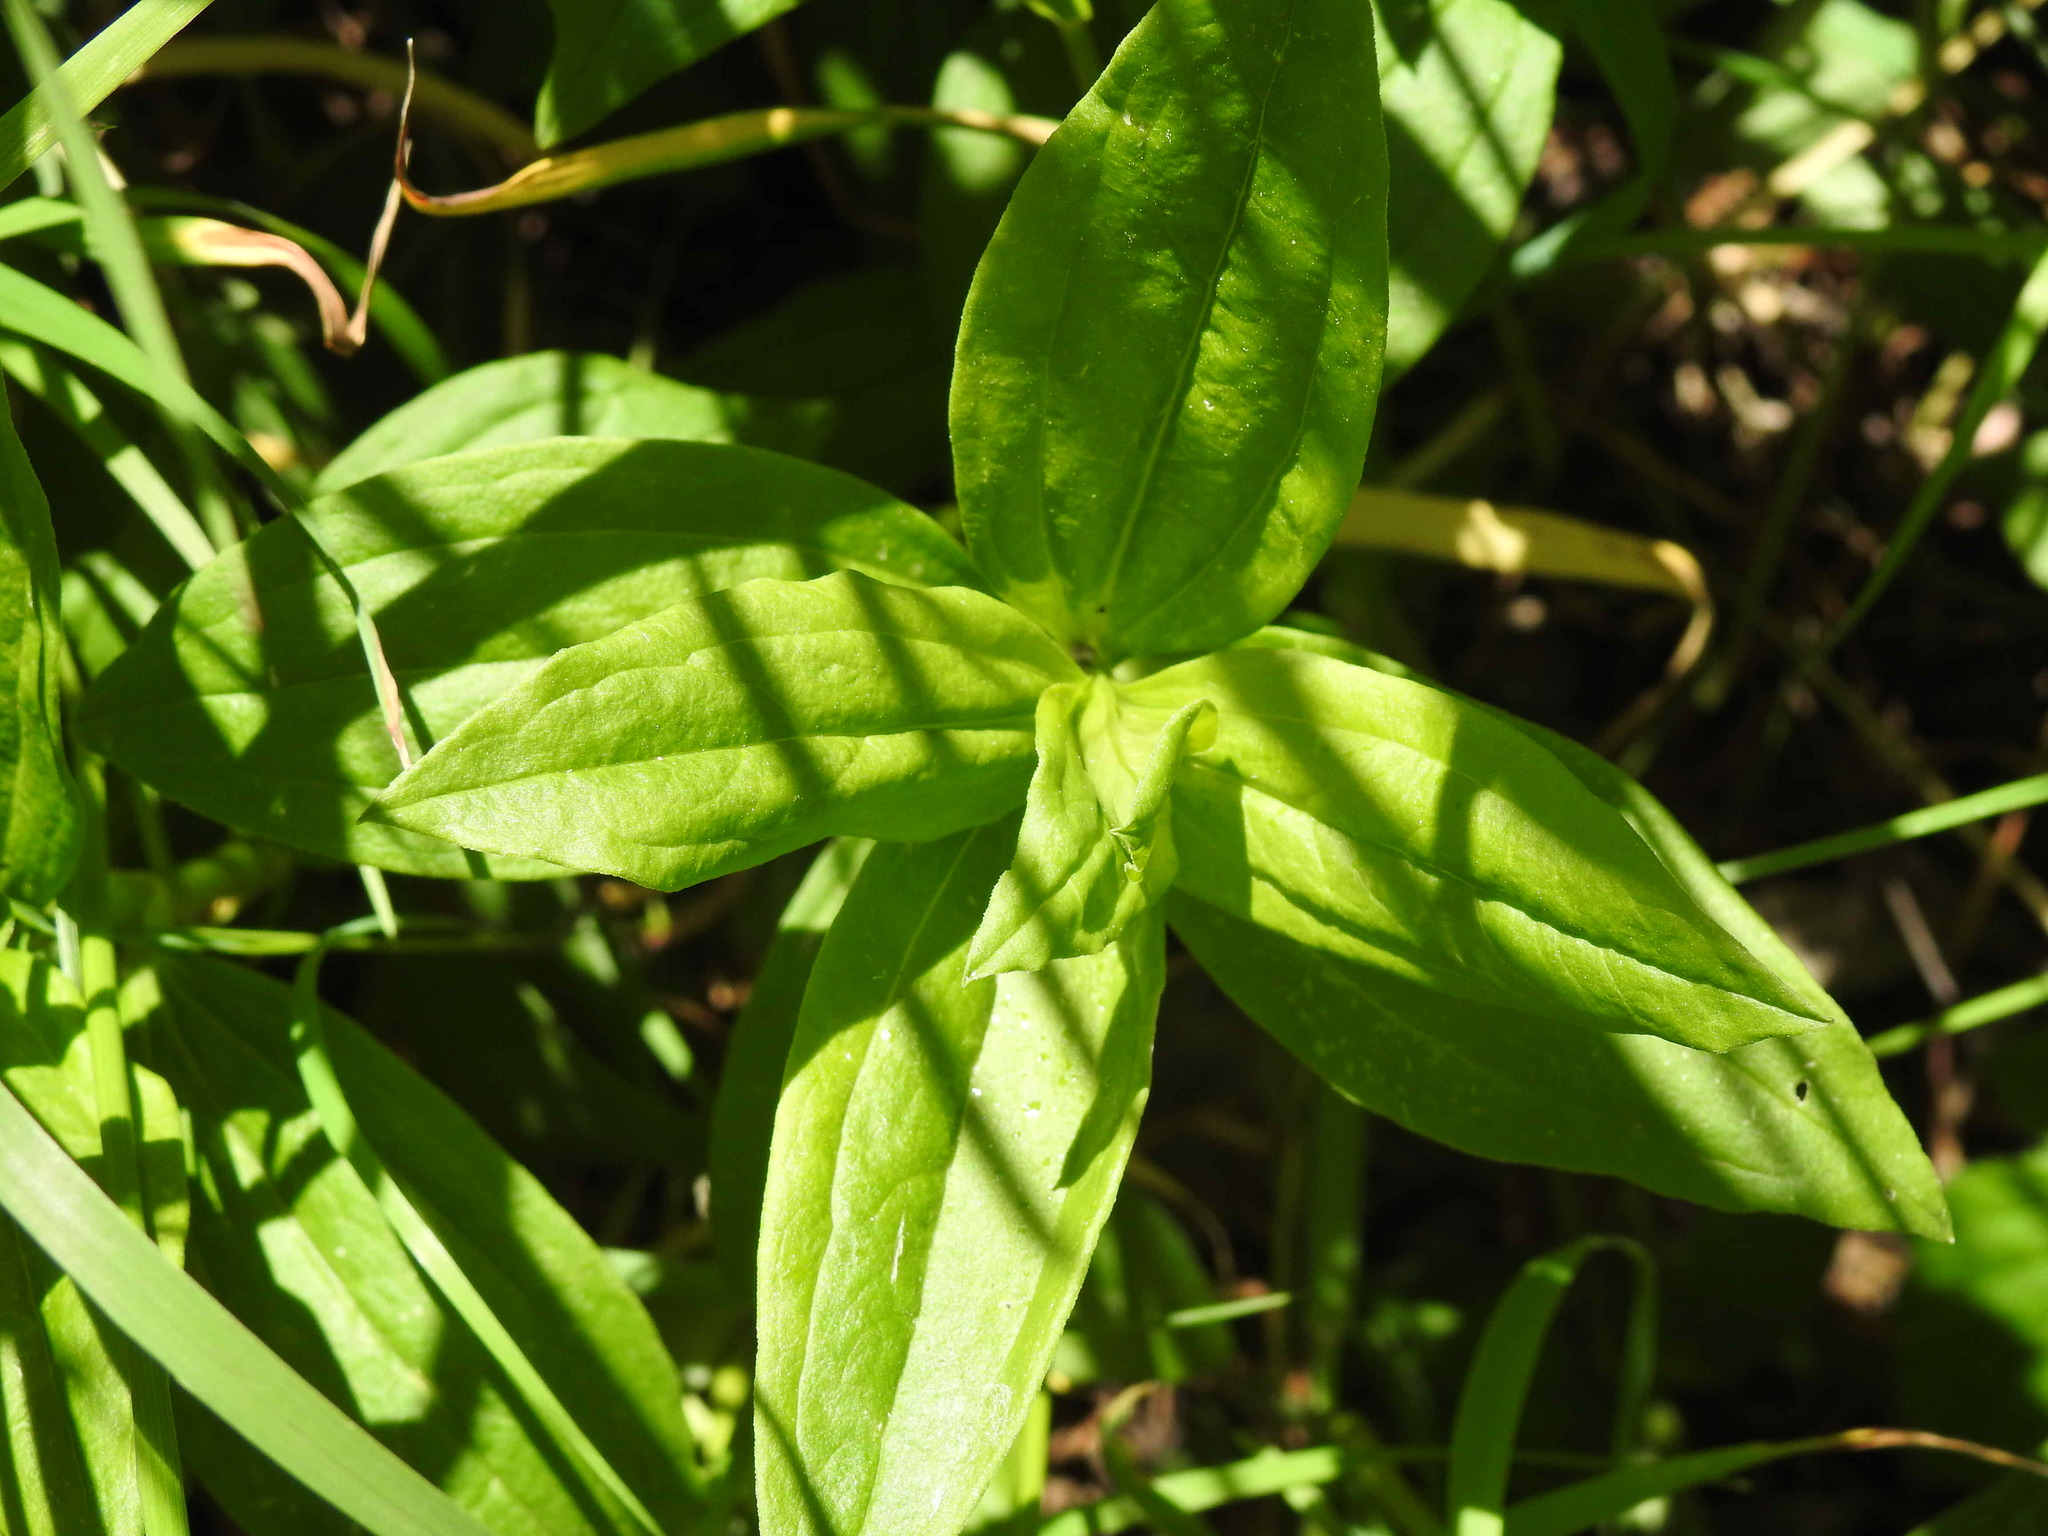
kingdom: Plantae
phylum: Tracheophyta
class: Magnoliopsida
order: Caryophyllales
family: Caryophyllaceae
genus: Saponaria
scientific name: Saponaria officinalis
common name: Soapwort
